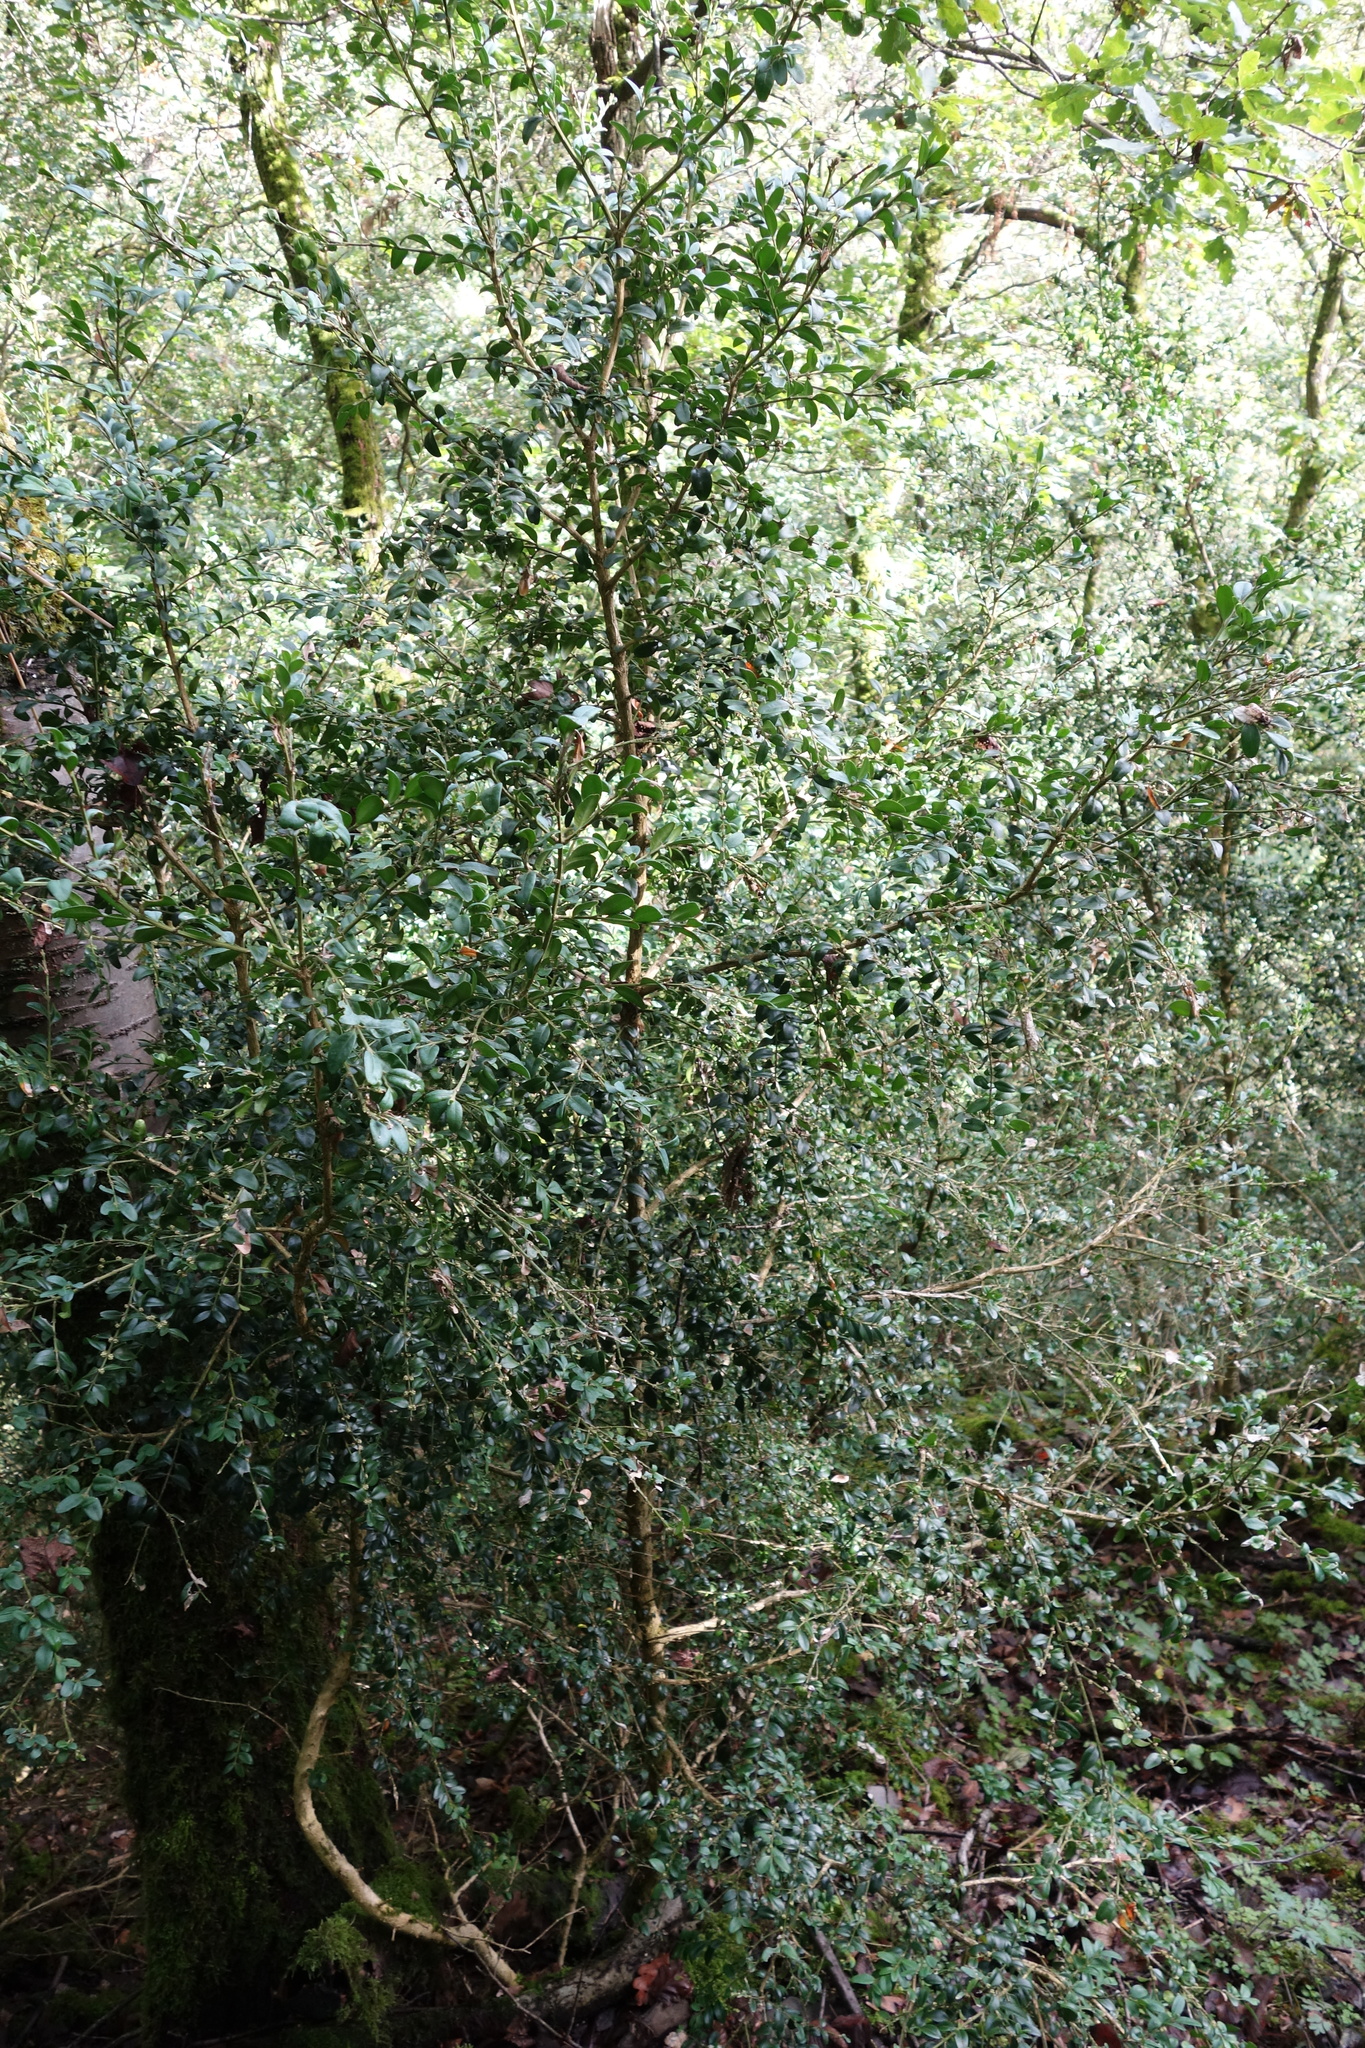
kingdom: Plantae
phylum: Tracheophyta
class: Magnoliopsida
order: Buxales
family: Buxaceae
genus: Buxus
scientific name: Buxus sempervirens
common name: Box
